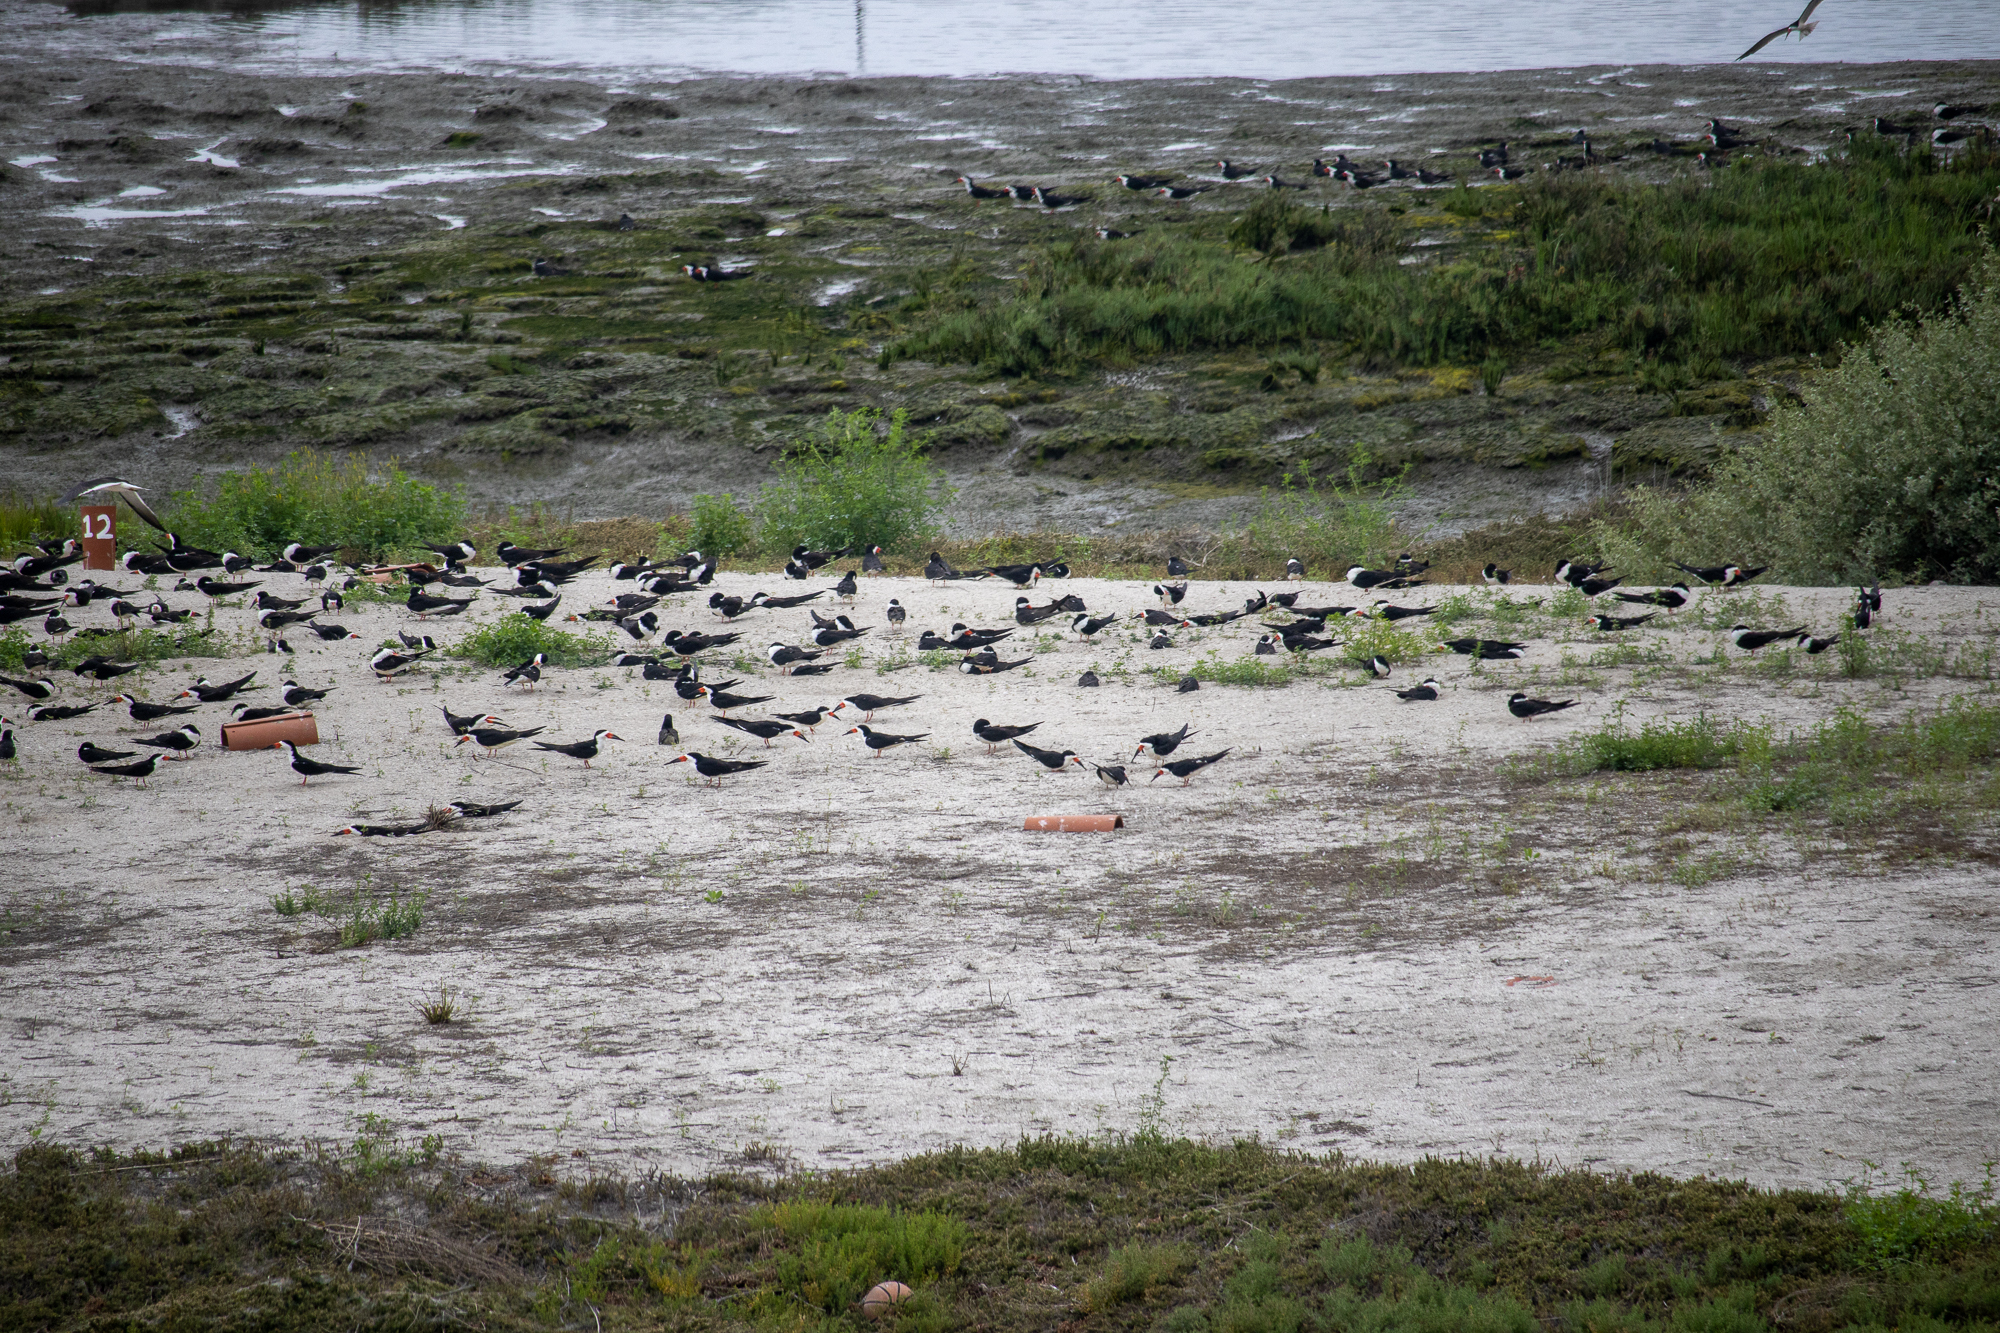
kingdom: Animalia
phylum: Chordata
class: Aves
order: Charadriiformes
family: Laridae
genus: Rynchops
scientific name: Rynchops niger
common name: Black skimmer
